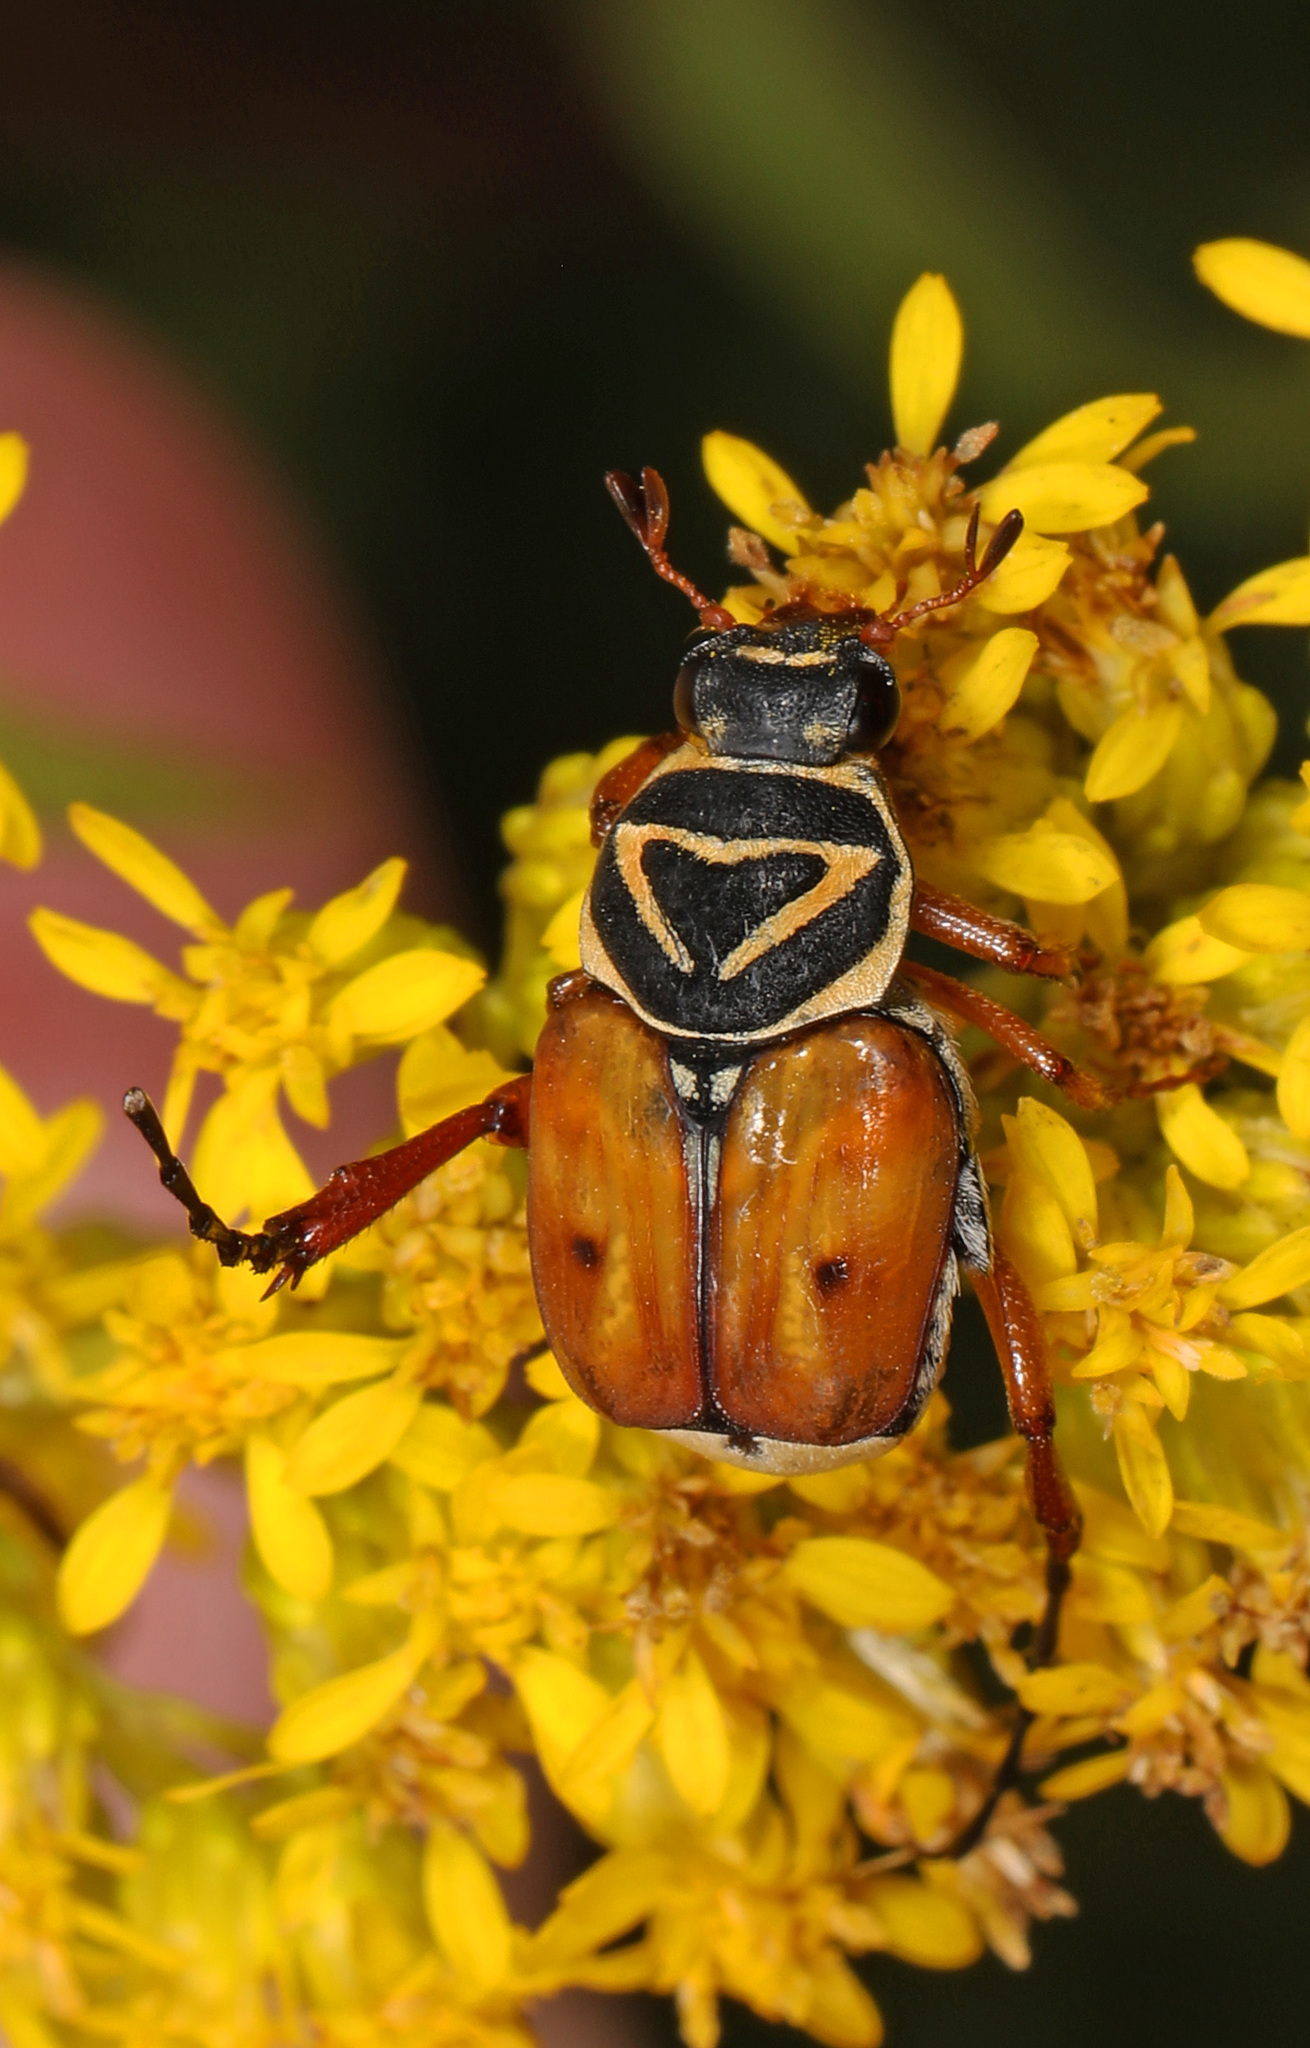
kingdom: Animalia
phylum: Arthropoda
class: Insecta
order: Coleoptera
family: Scarabaeidae
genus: Trigonopeltastes
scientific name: Trigonopeltastes delta
